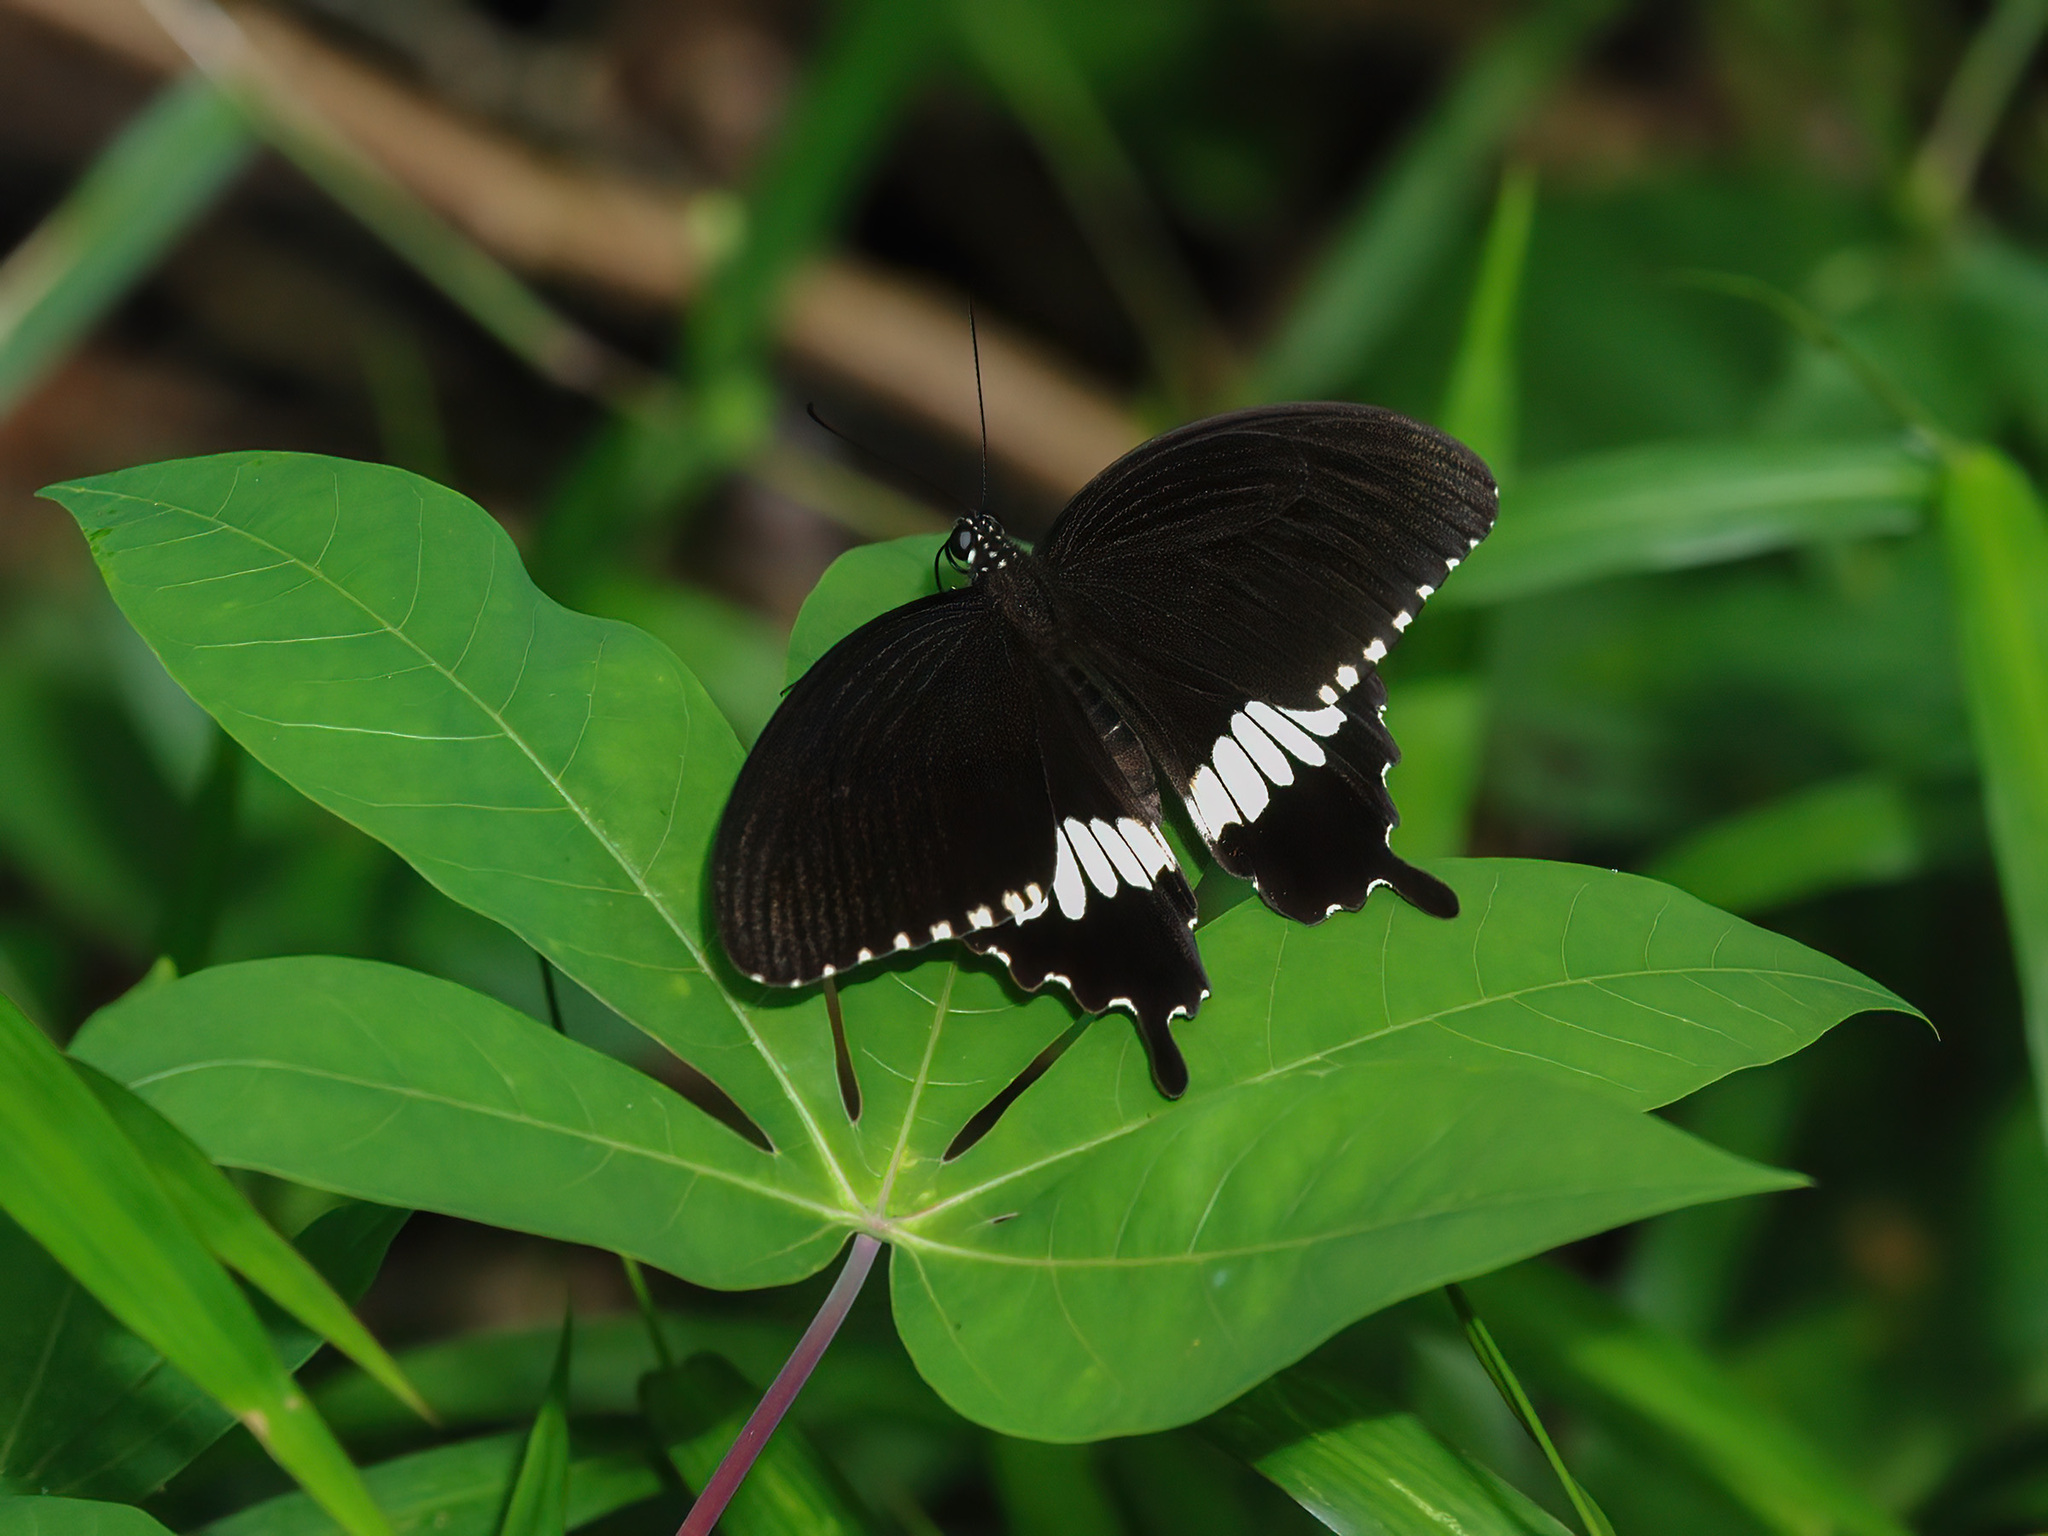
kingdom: Animalia
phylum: Arthropoda
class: Insecta
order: Lepidoptera
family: Papilionidae
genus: Papilio
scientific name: Papilio polytes
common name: Common mormon
